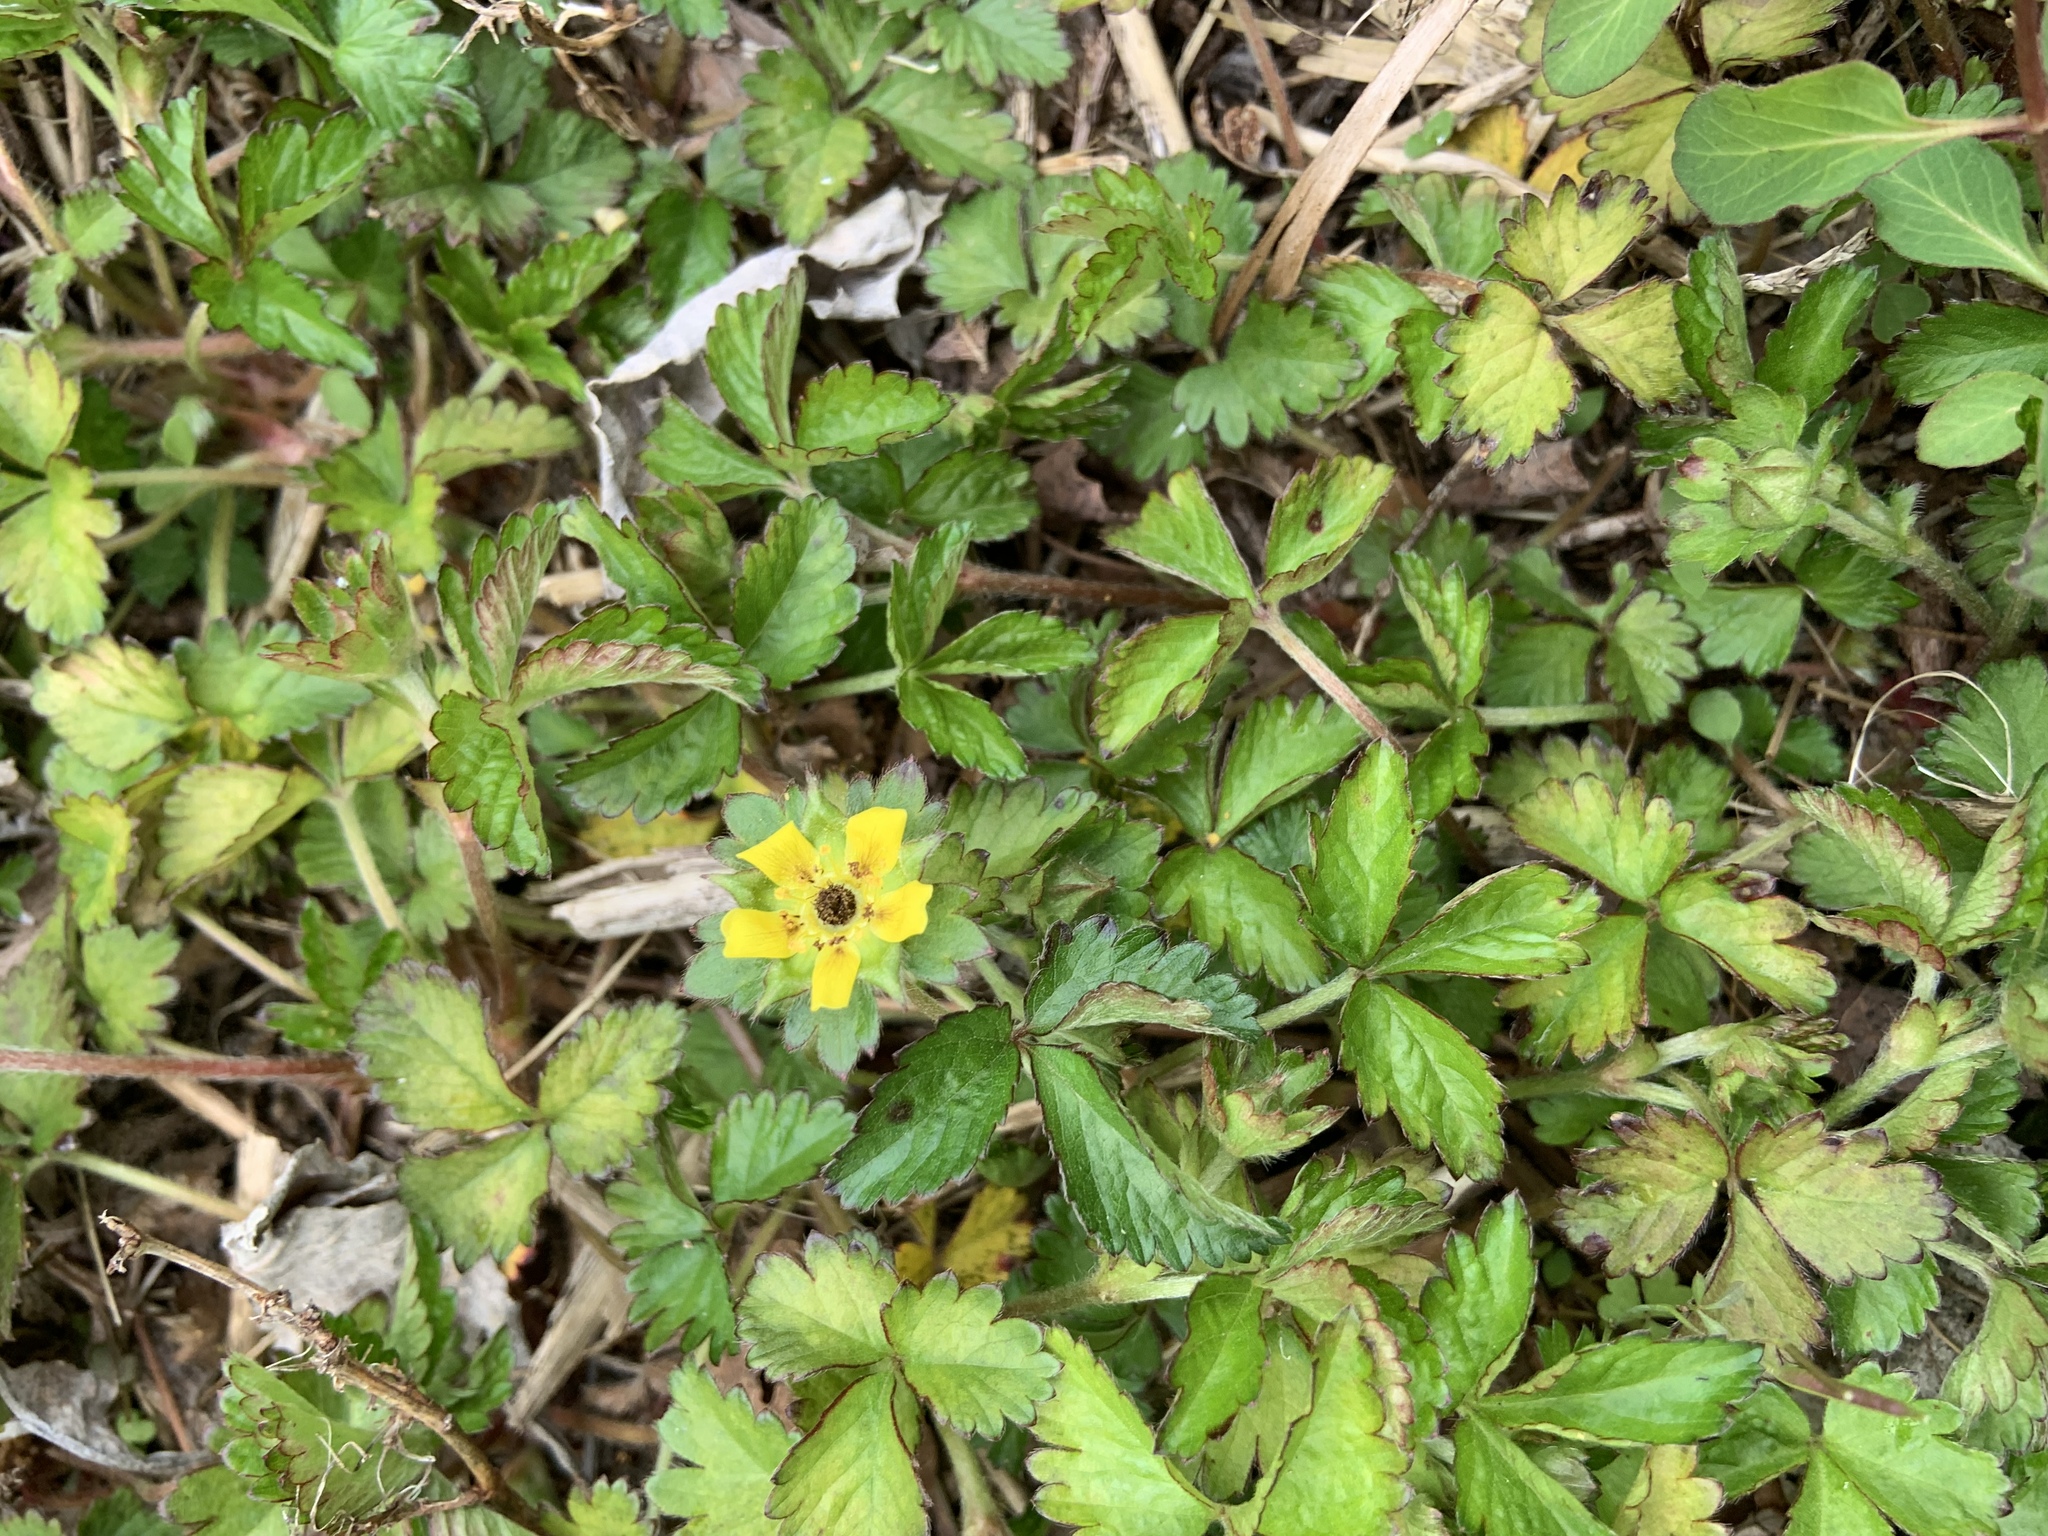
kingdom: Plantae
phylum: Tracheophyta
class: Magnoliopsida
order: Rosales
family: Rosaceae
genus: Potentilla
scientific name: Potentilla indica
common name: Yellow-flowered strawberry
